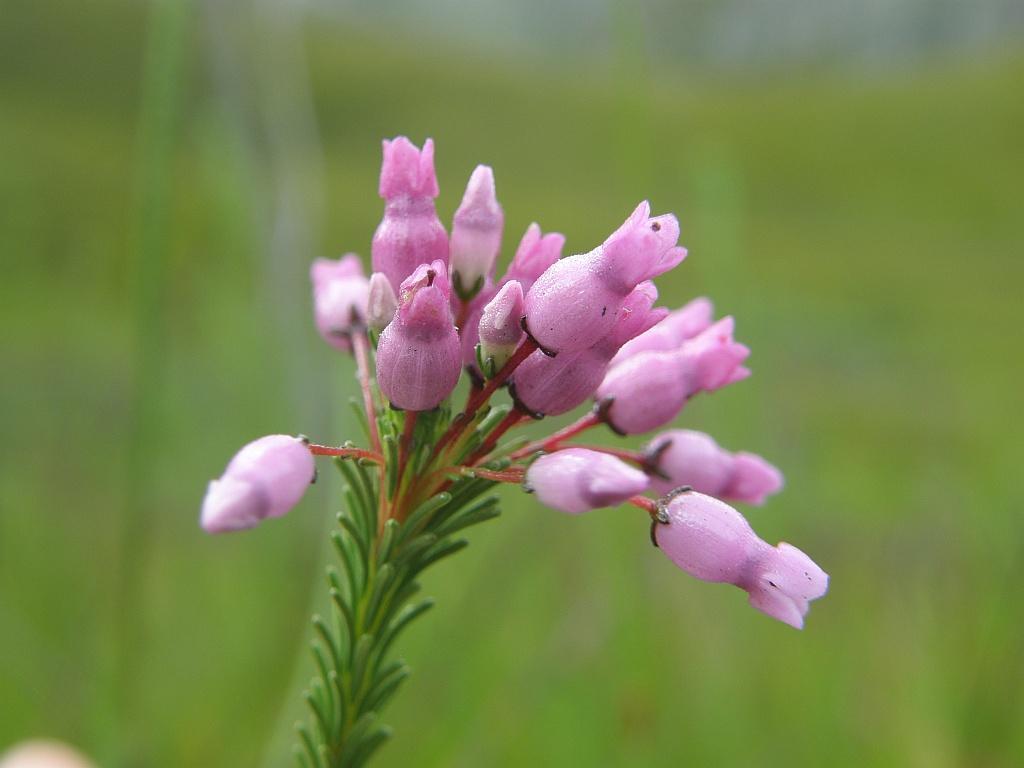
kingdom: Plantae
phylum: Tracheophyta
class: Magnoliopsida
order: Ericales
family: Ericaceae
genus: Erica
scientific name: Erica obliqua
